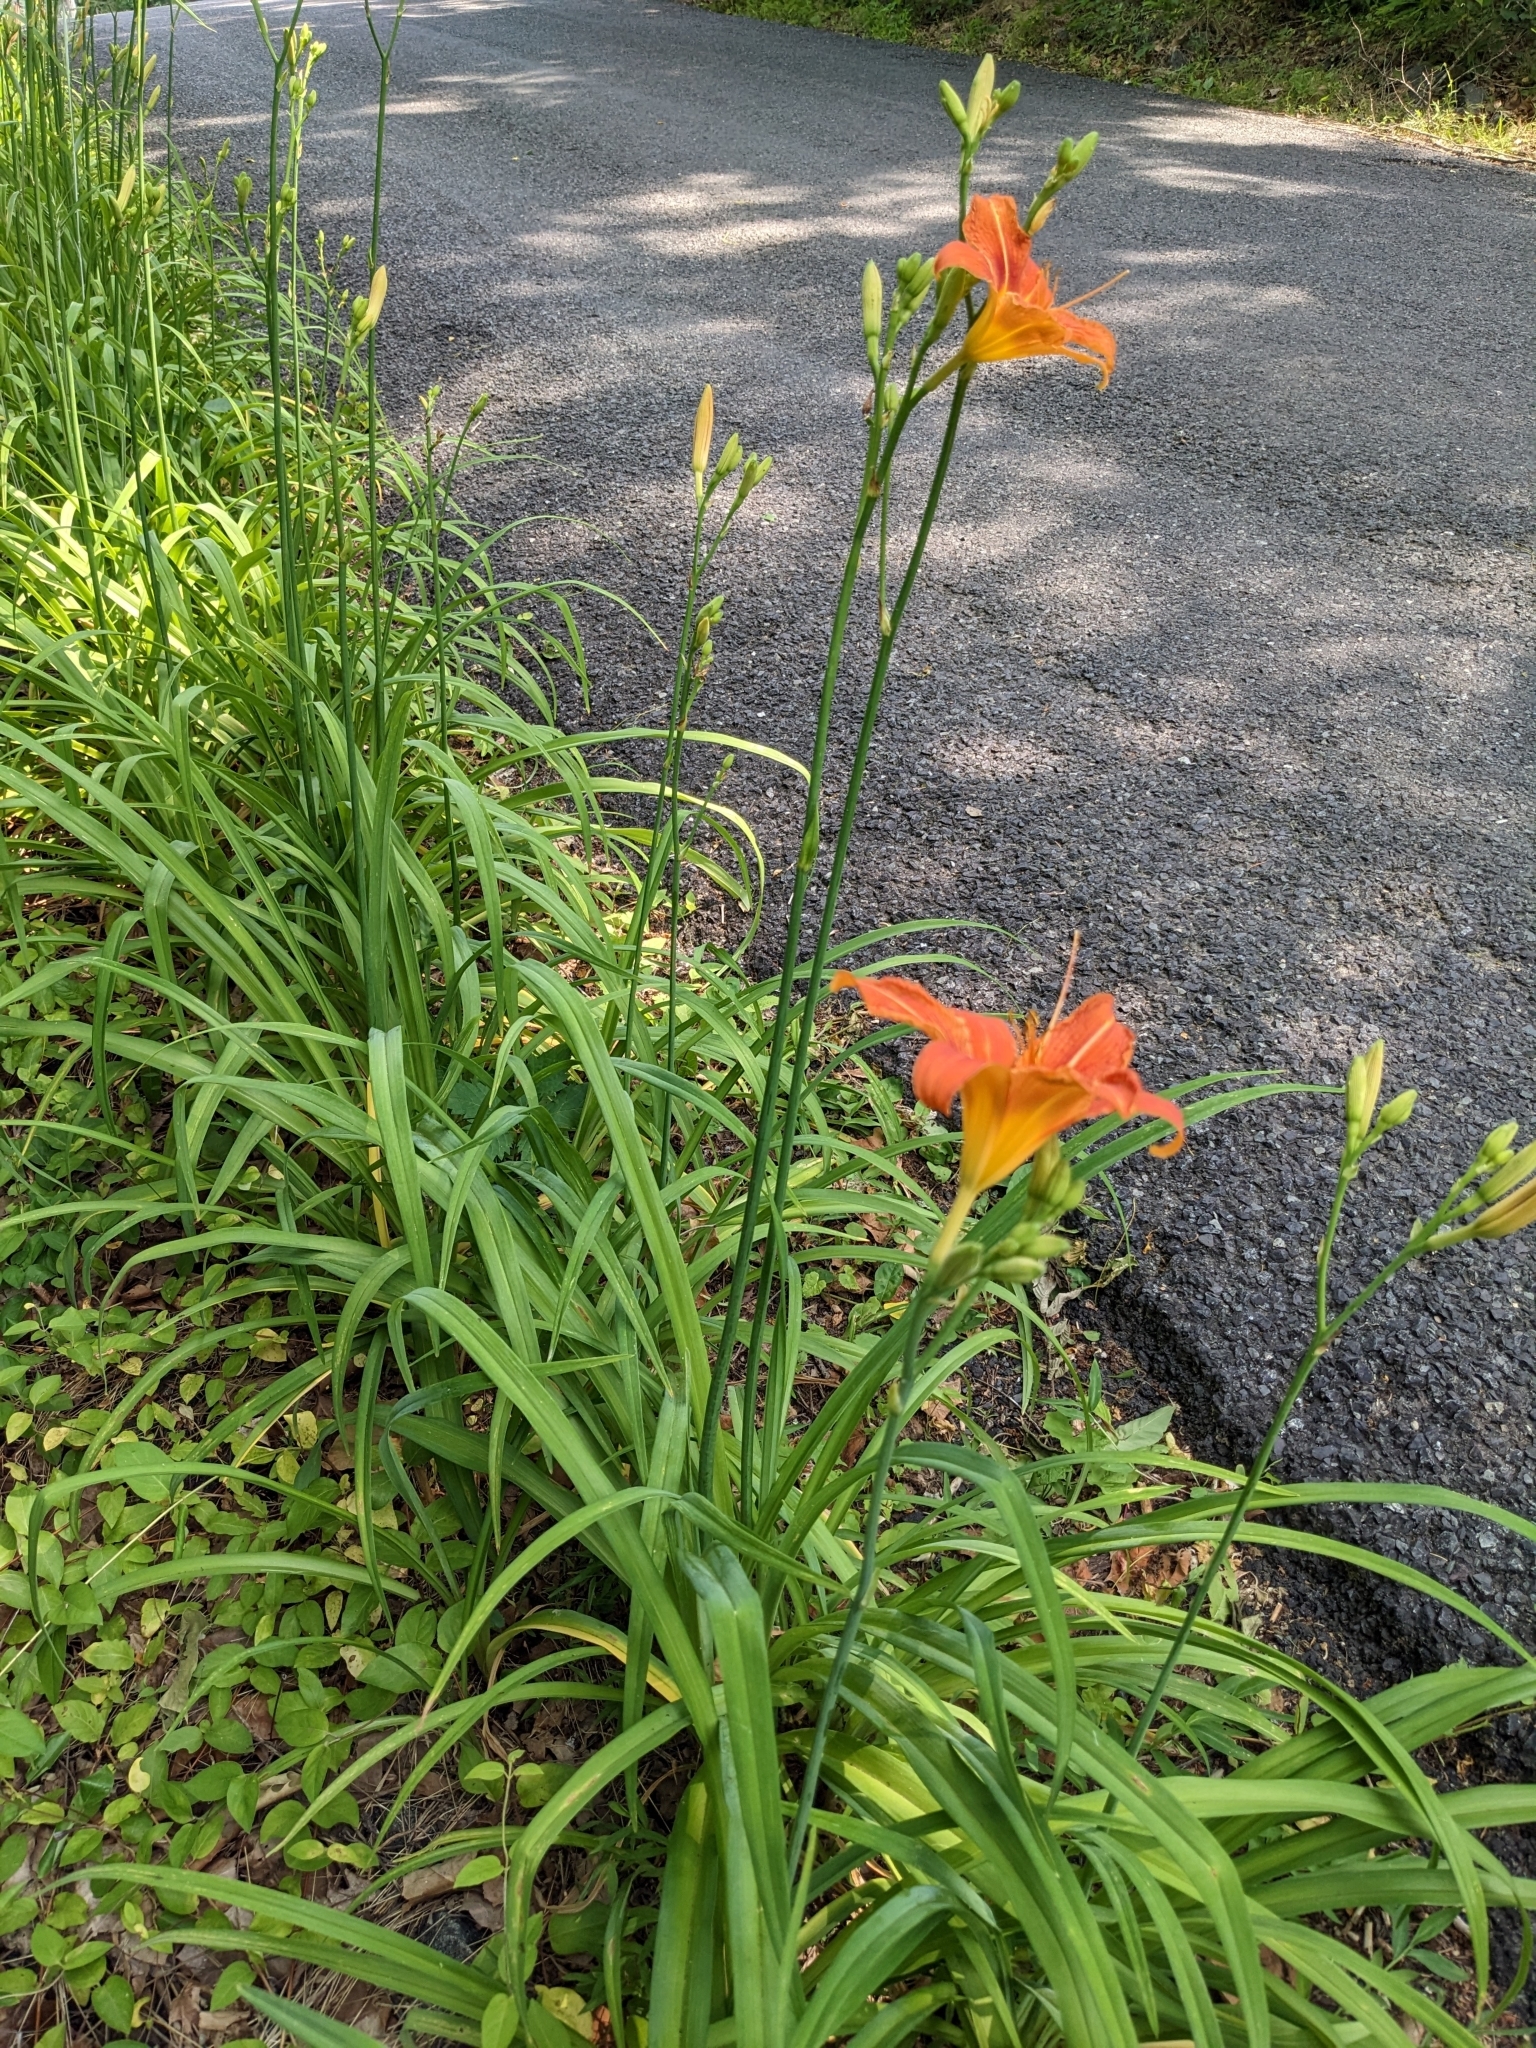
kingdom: Plantae
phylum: Tracheophyta
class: Liliopsida
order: Asparagales
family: Asphodelaceae
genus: Hemerocallis
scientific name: Hemerocallis fulva
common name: Orange day-lily
